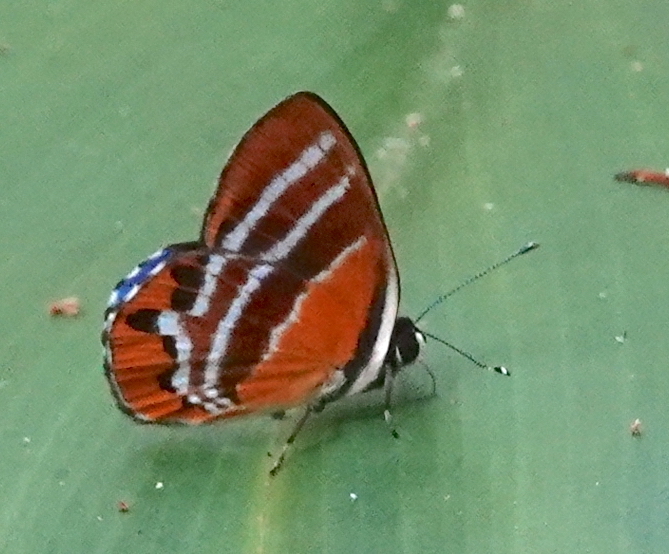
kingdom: Animalia
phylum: Arthropoda
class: Insecta
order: Lepidoptera
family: Lycaenidae
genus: Euselasia
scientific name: Euselasia euriteus
